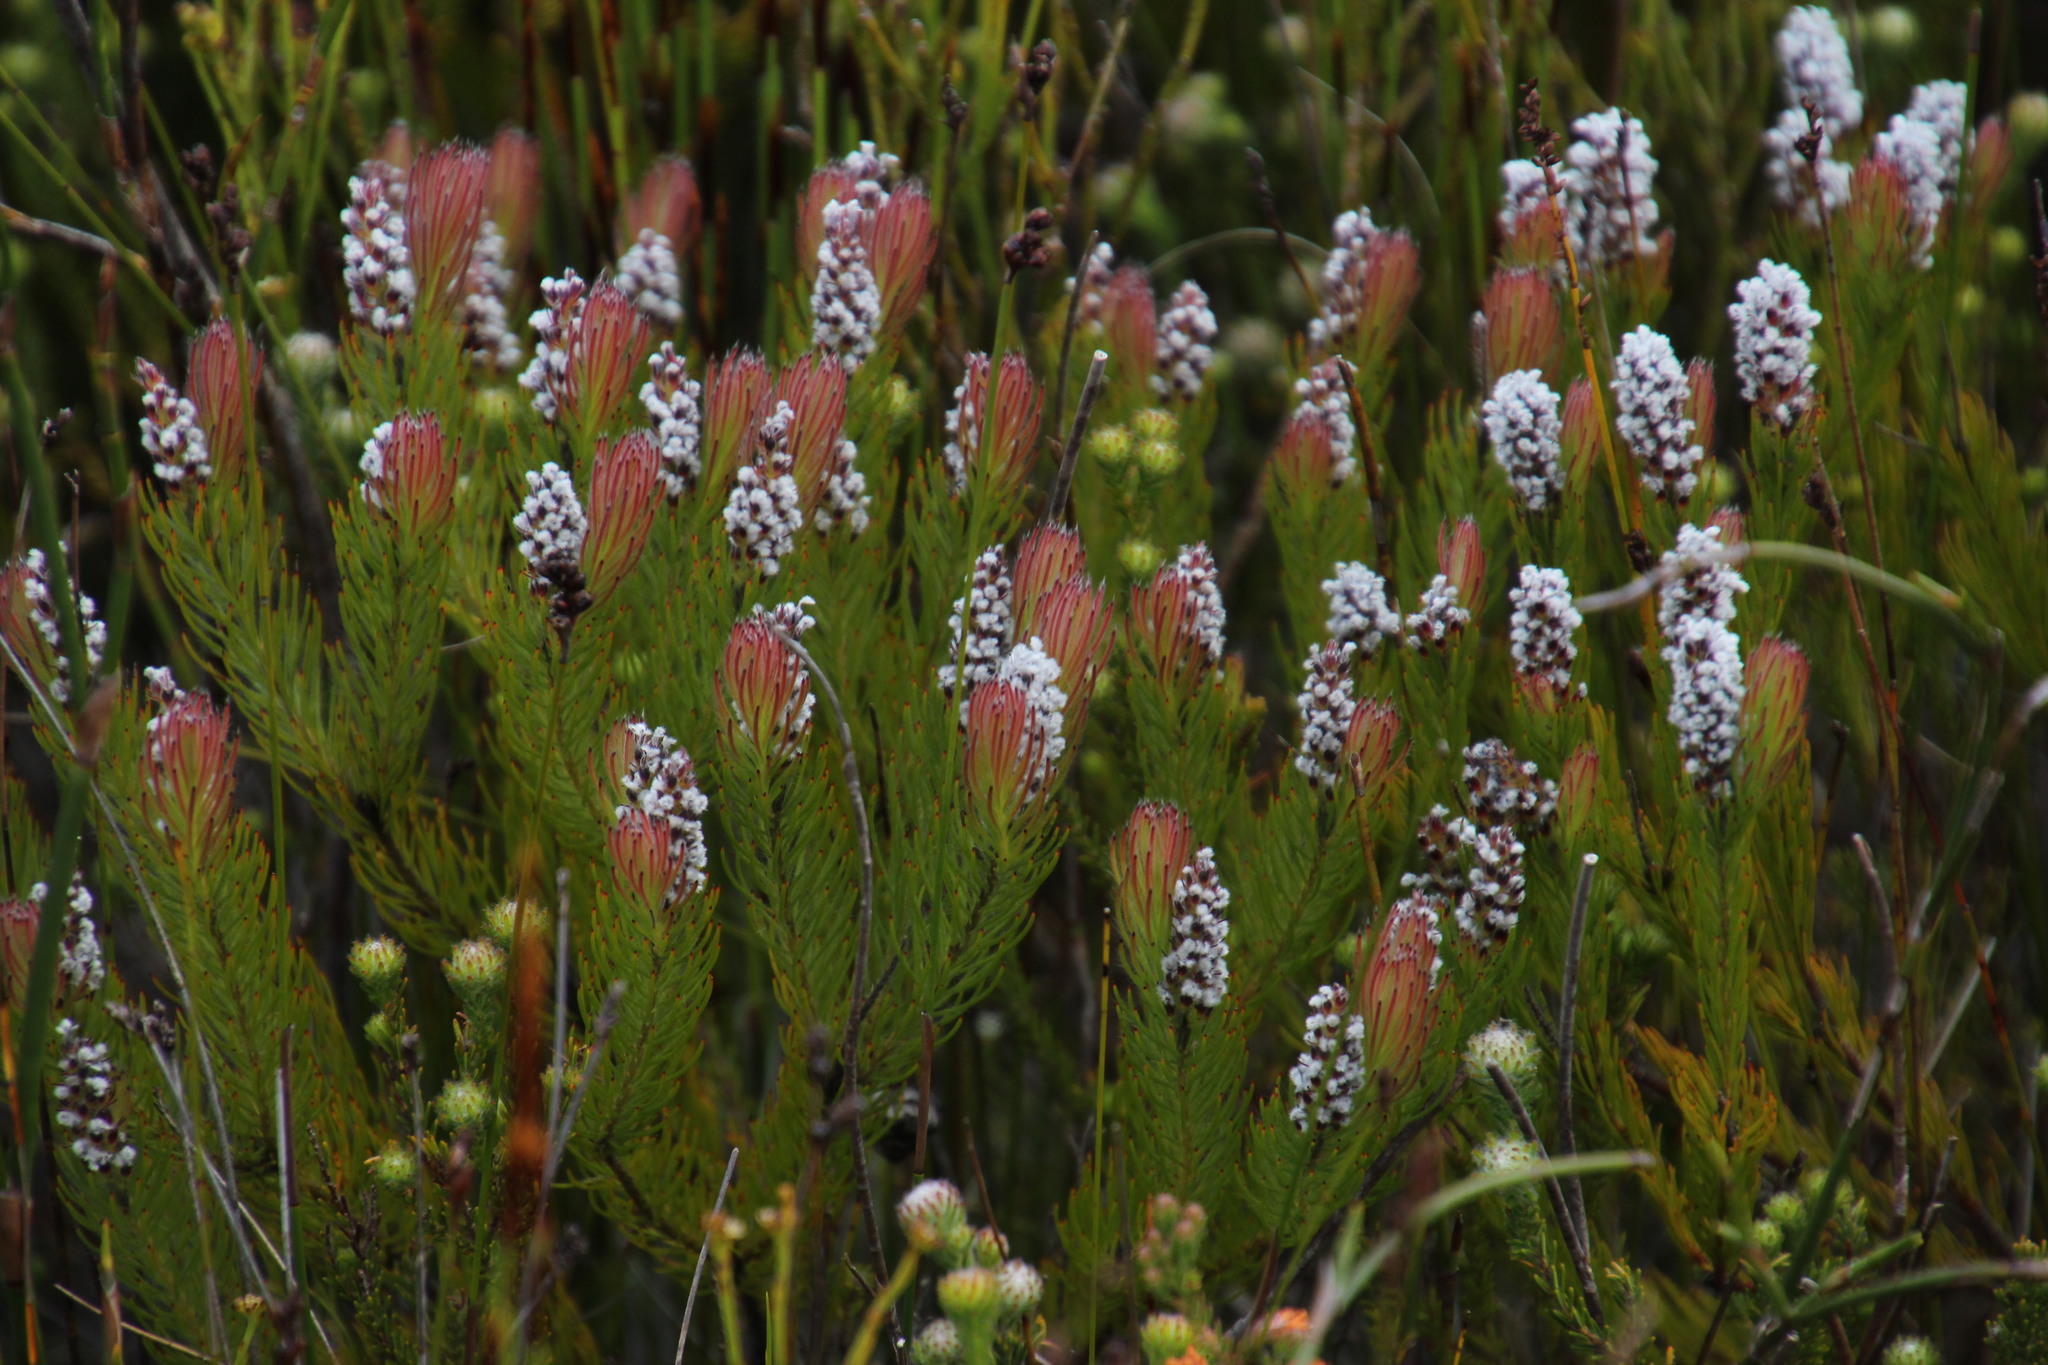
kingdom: Plantae
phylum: Tracheophyta
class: Magnoliopsida
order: Proteales
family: Proteaceae
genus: Spatalla
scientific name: Spatalla mollis
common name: Woolly spoon
